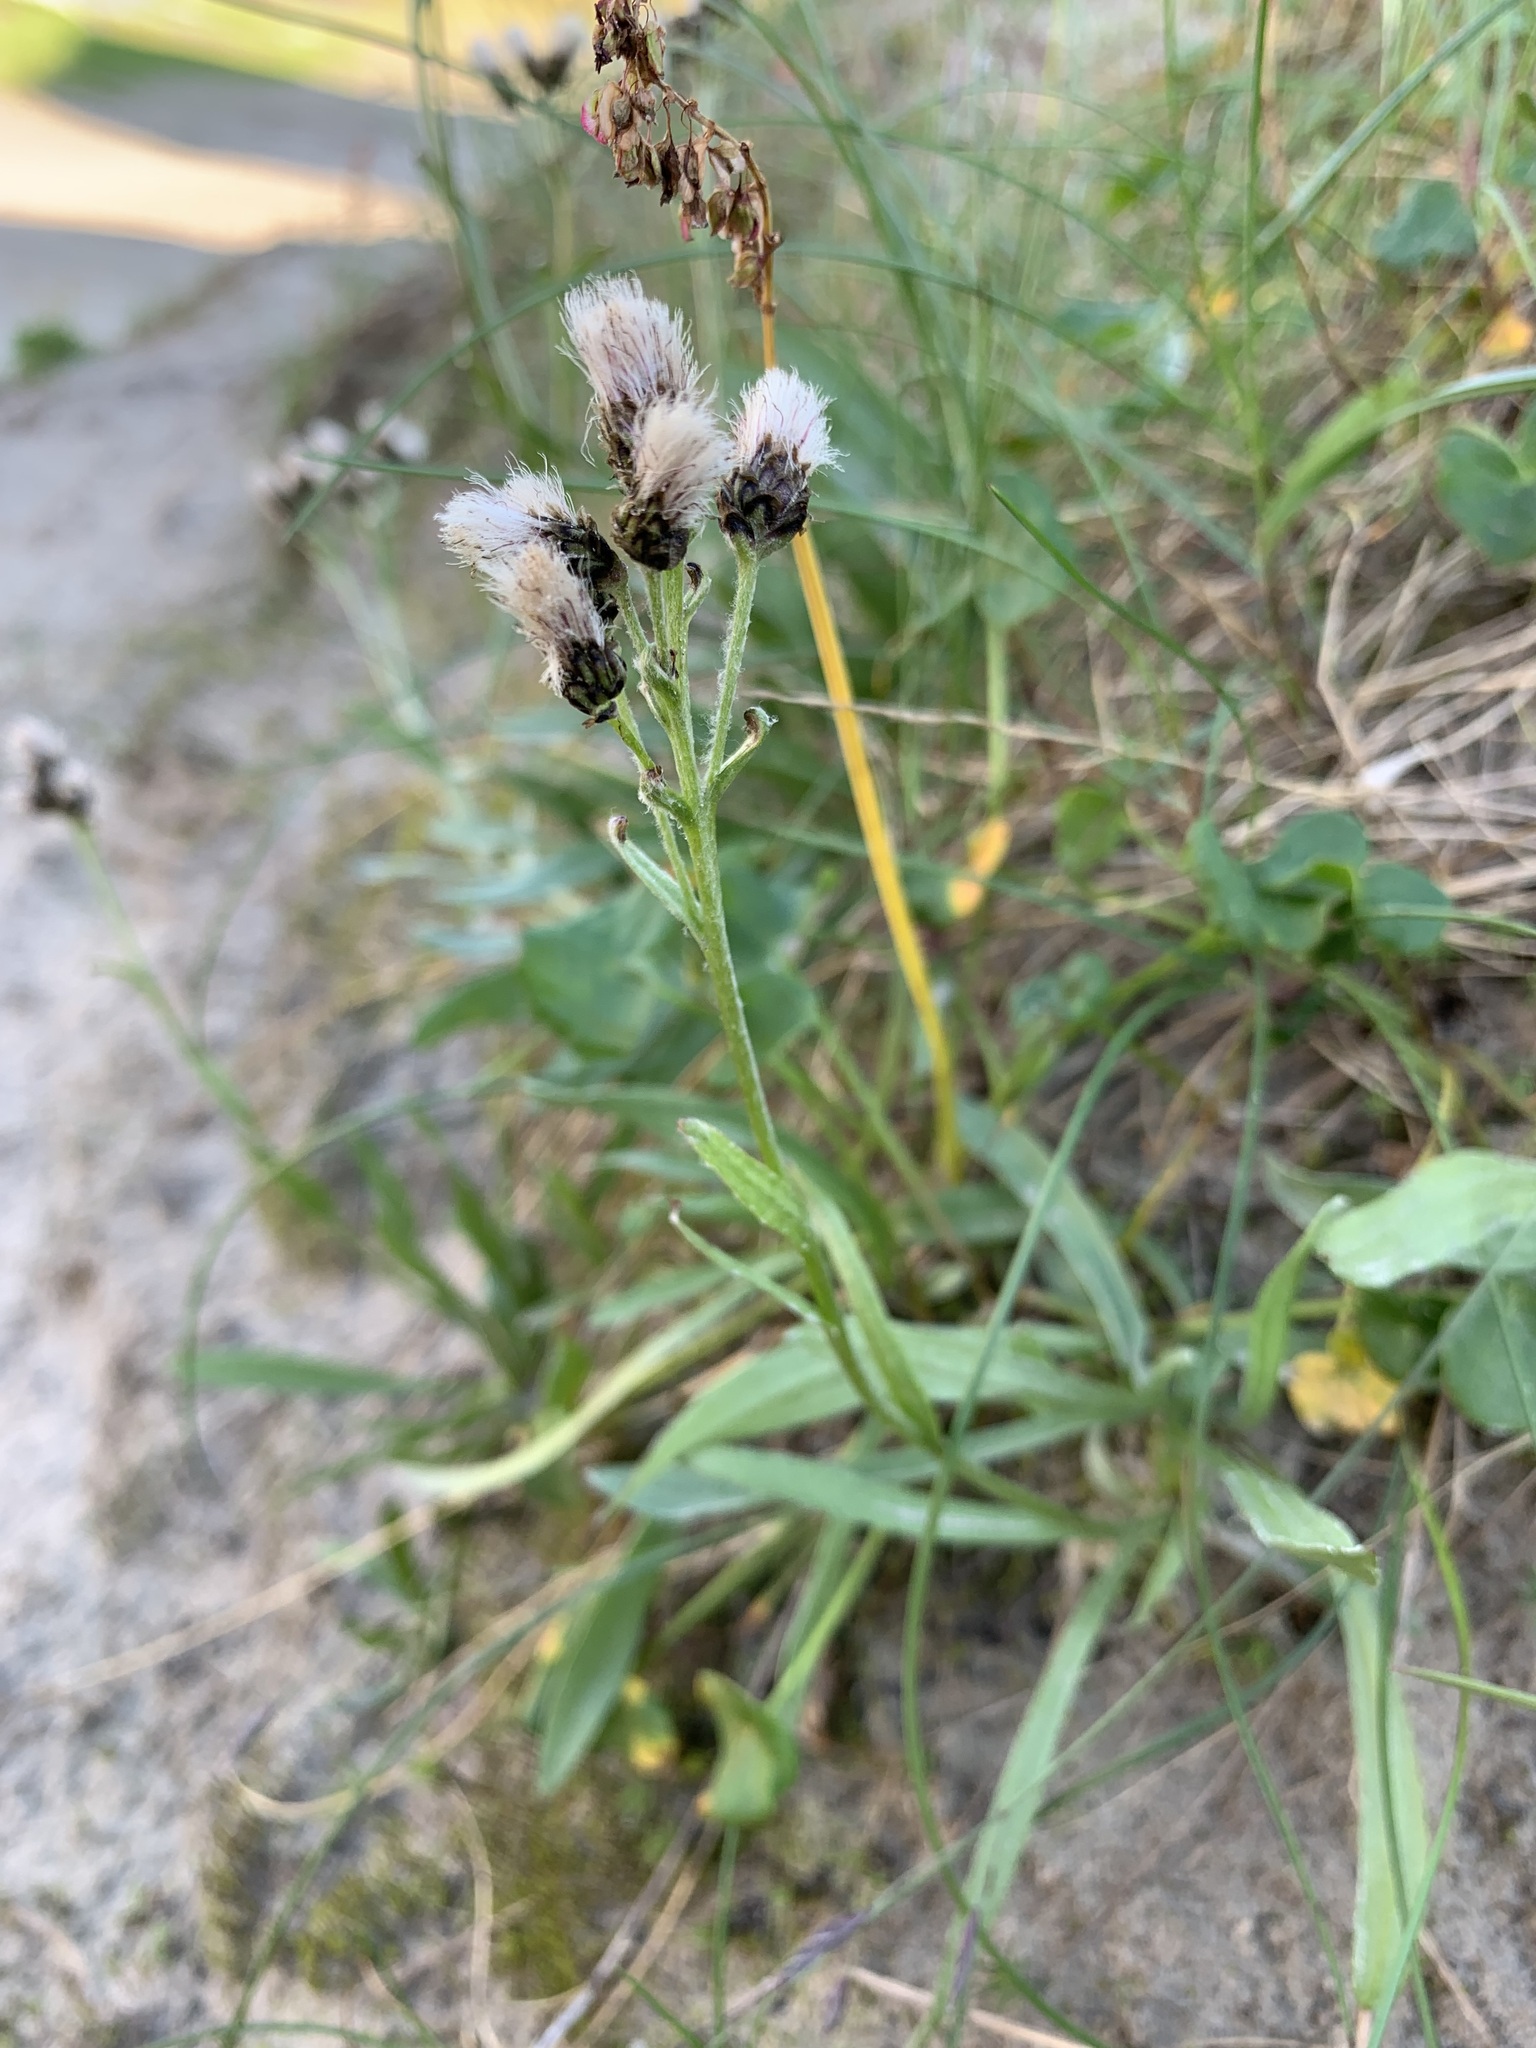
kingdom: Plantae
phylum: Tracheophyta
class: Magnoliopsida
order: Asterales
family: Asteraceae
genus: Antennaria
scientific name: Antennaria lanata
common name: Woolly pussytoes
